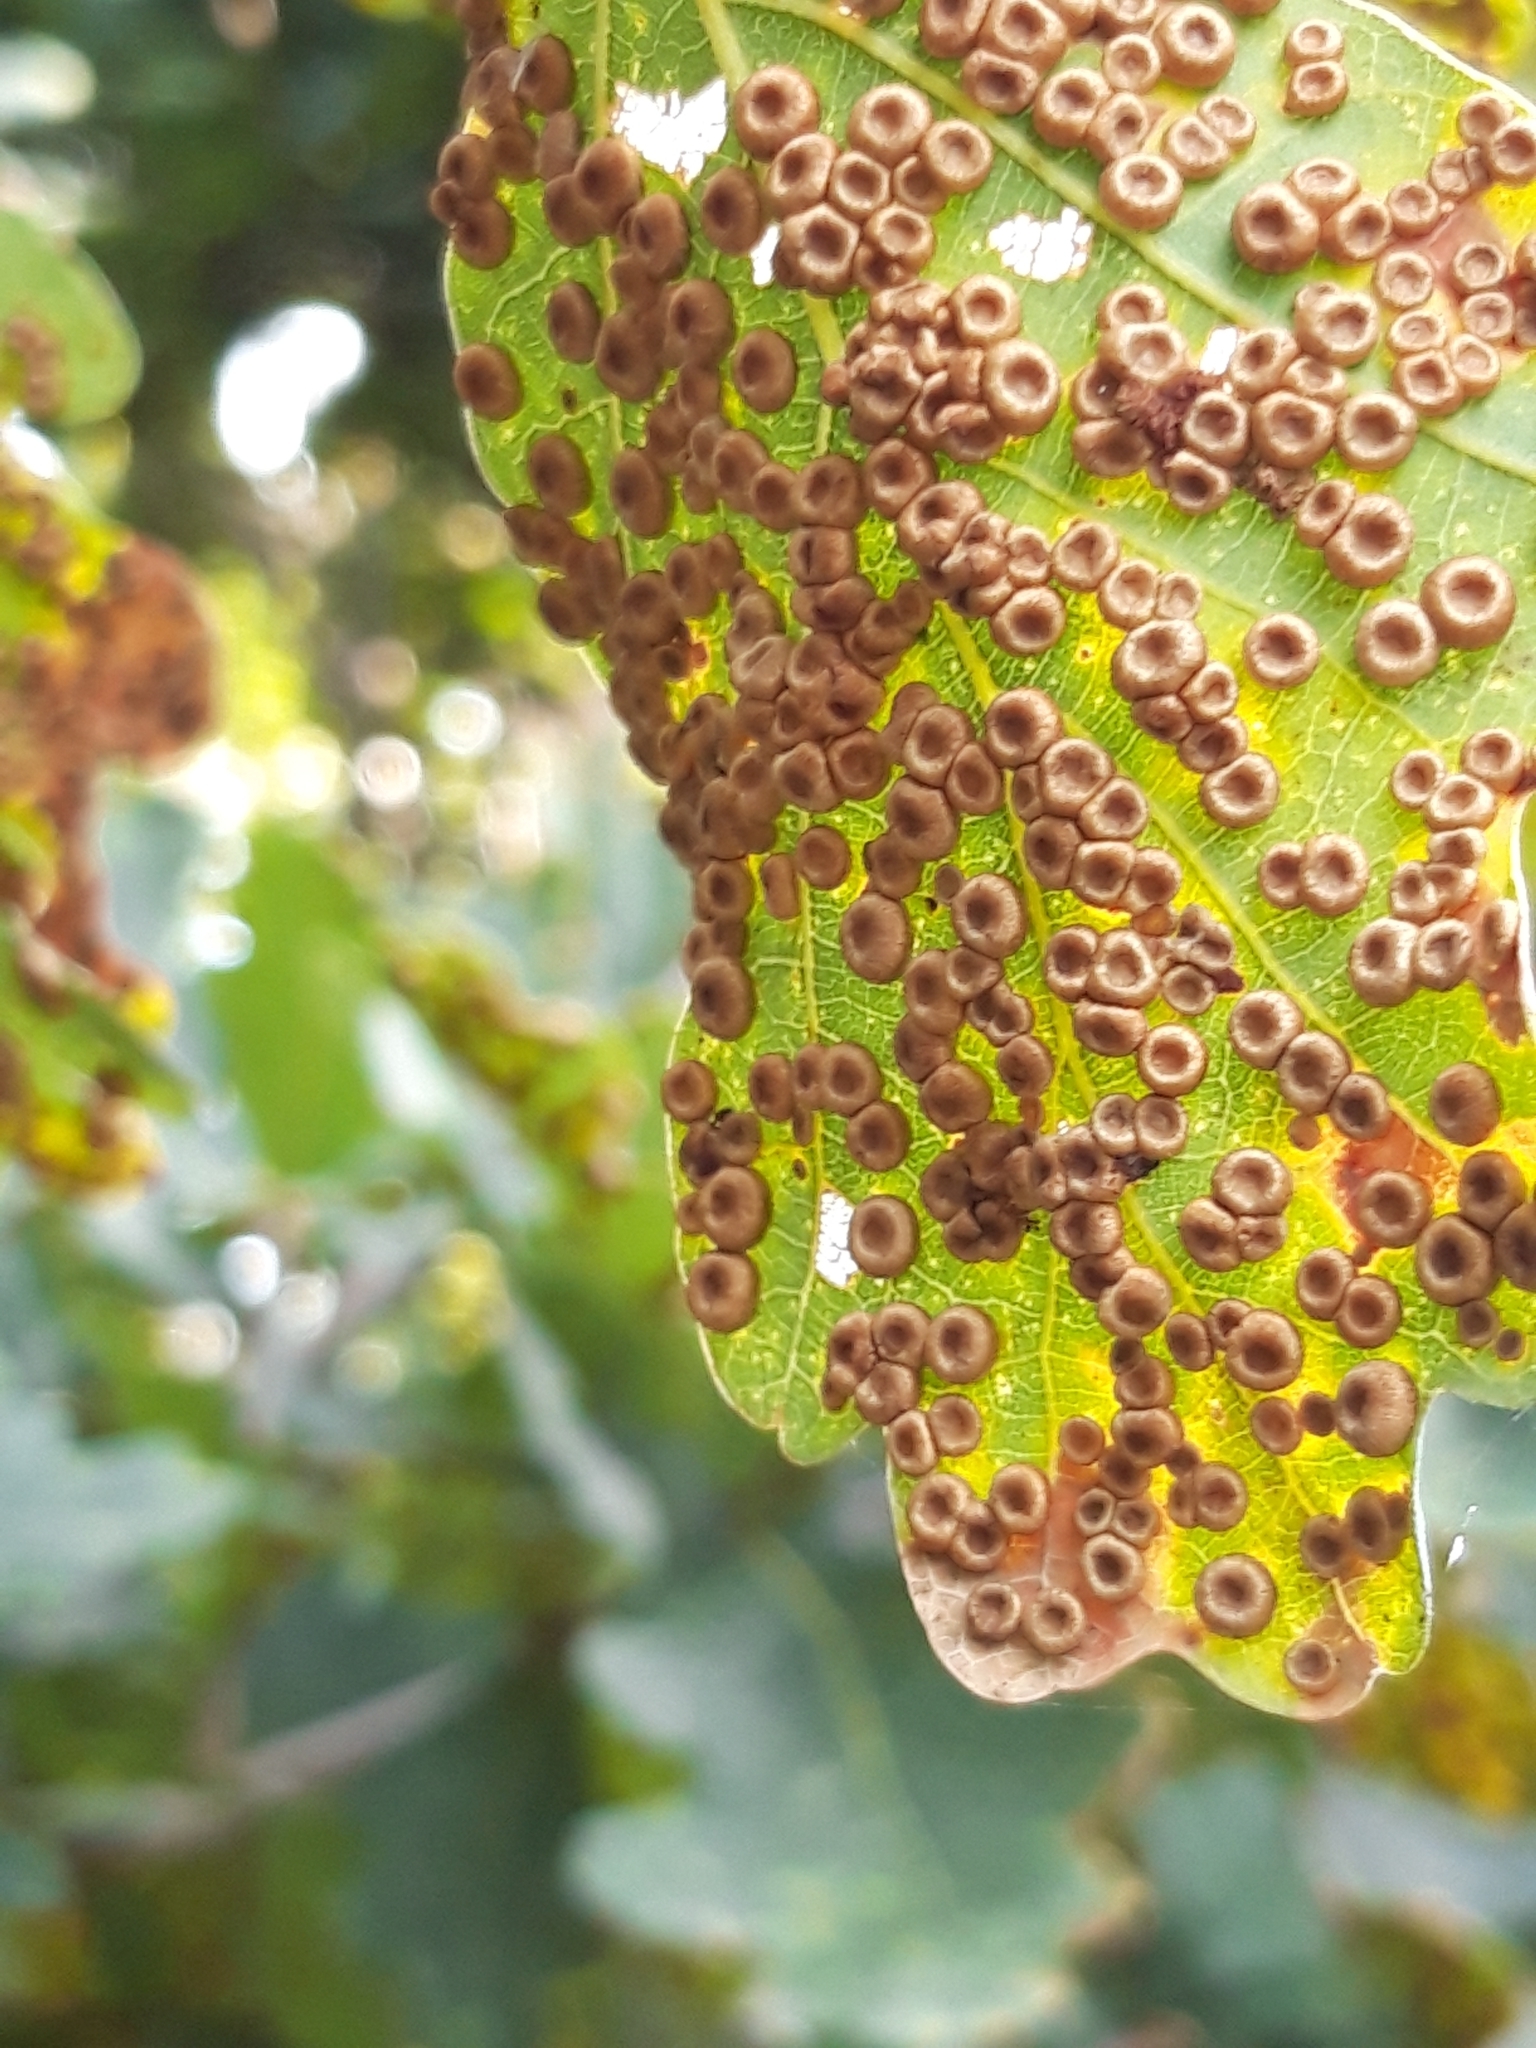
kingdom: Animalia
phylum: Arthropoda
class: Insecta
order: Hymenoptera
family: Cynipidae
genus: Neuroterus
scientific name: Neuroterus numismalis
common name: Silk-button spangle gall
